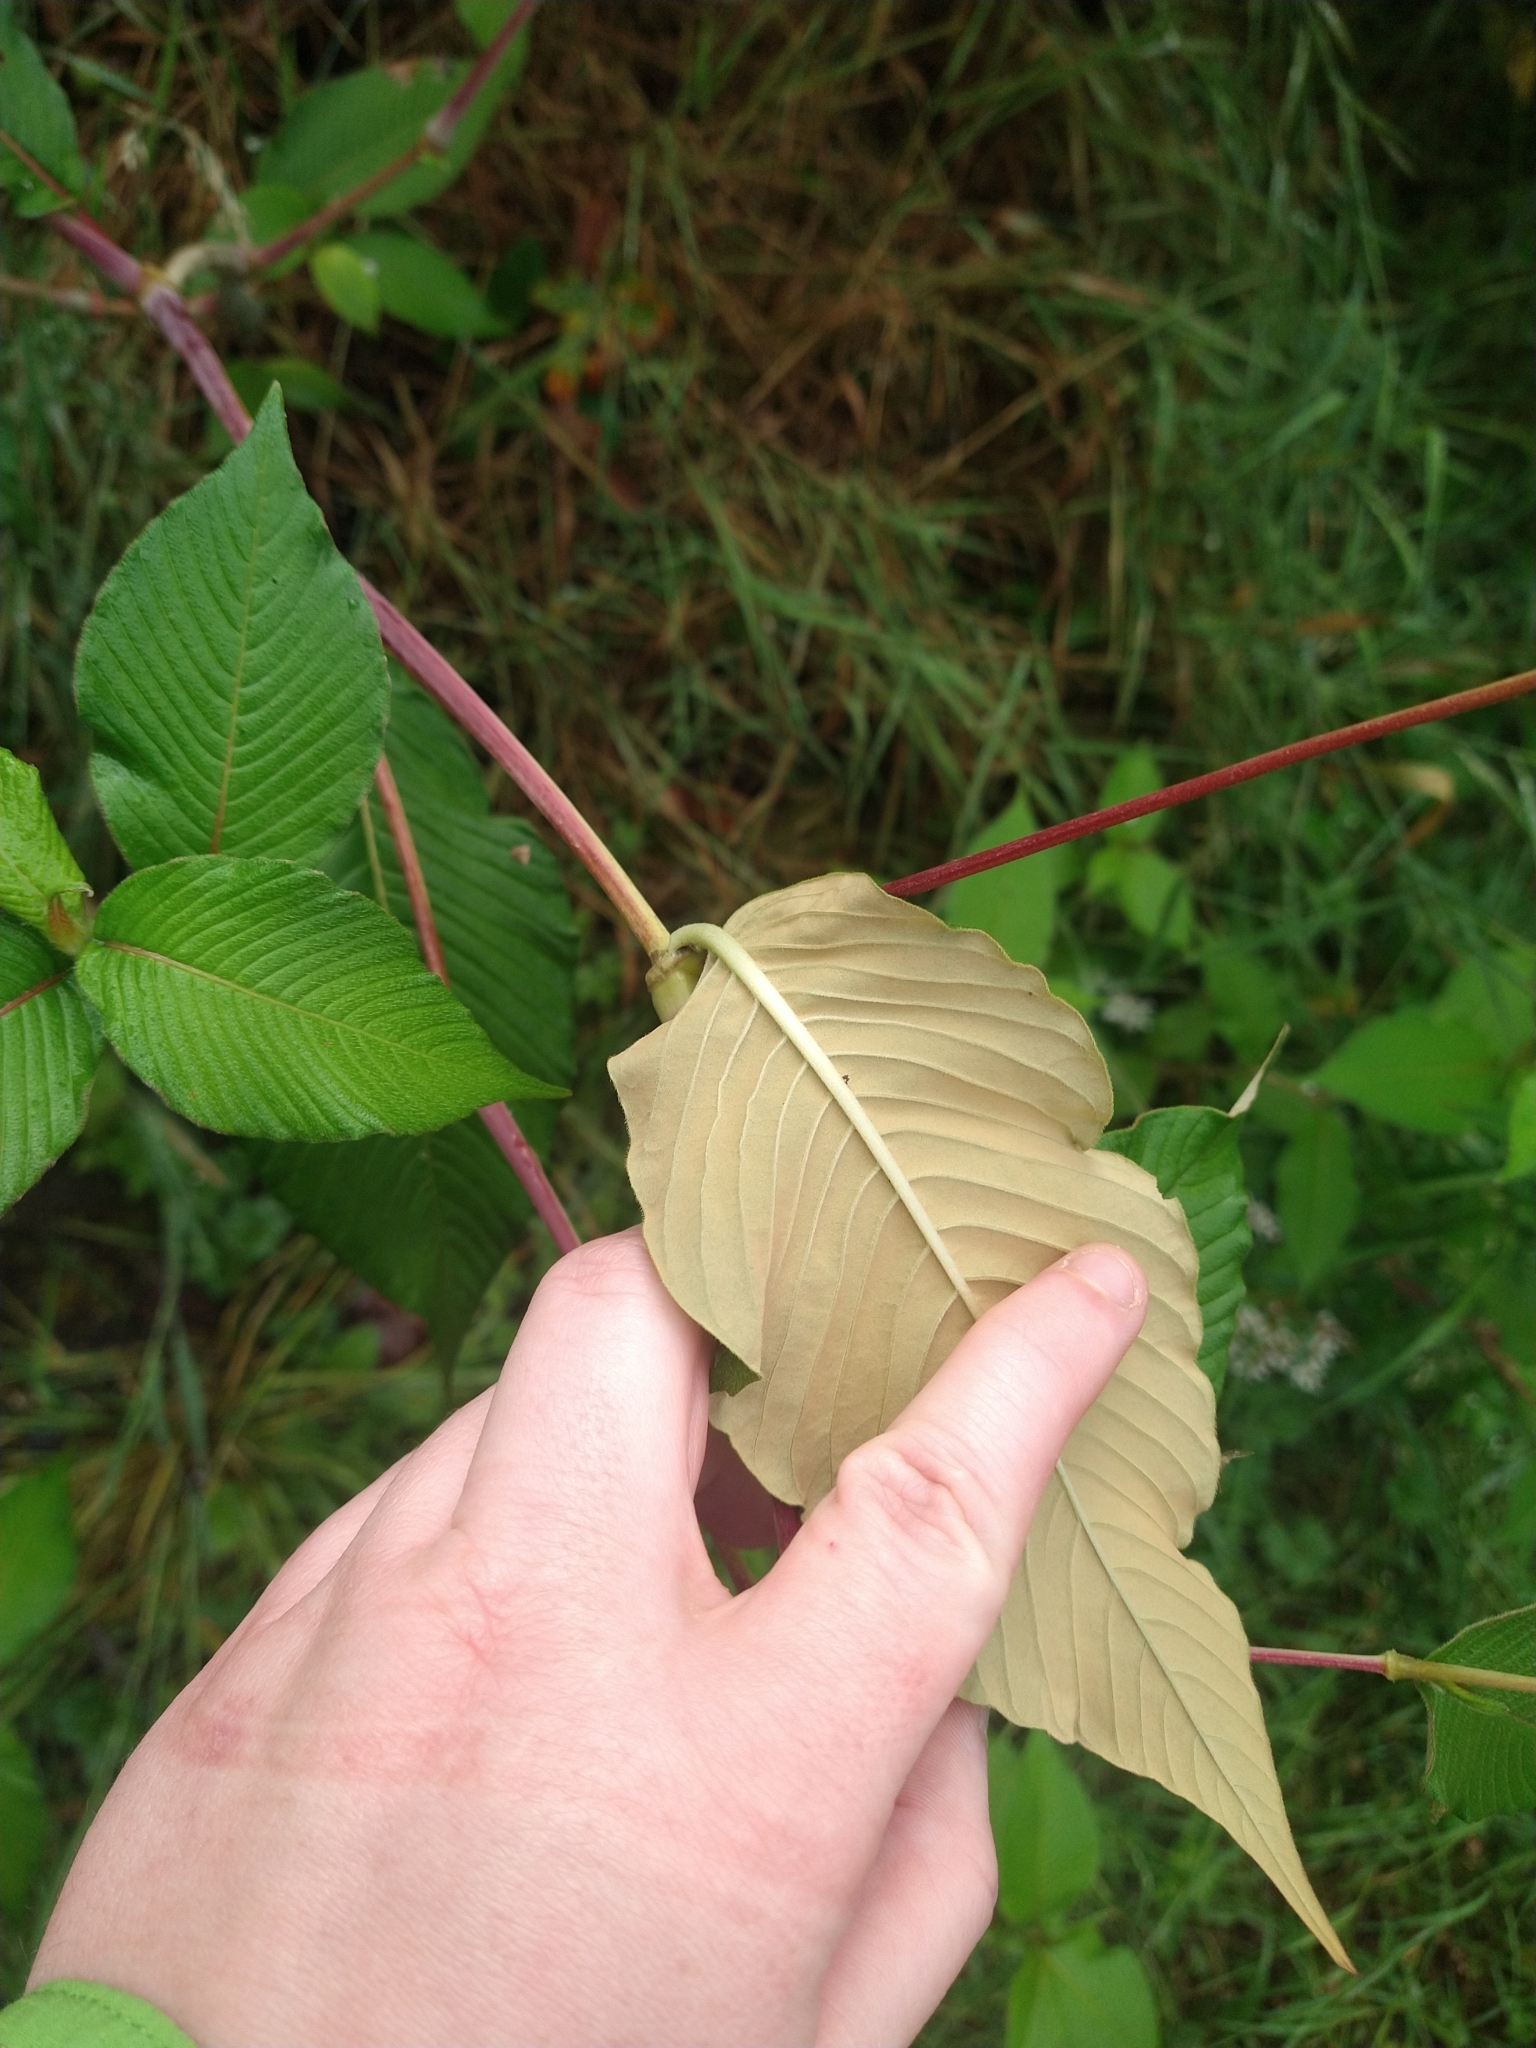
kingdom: Plantae
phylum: Tracheophyta
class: Magnoliopsida
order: Caryophyllales
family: Polygonaceae
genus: Koenigia
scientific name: Koenigia campanulata
